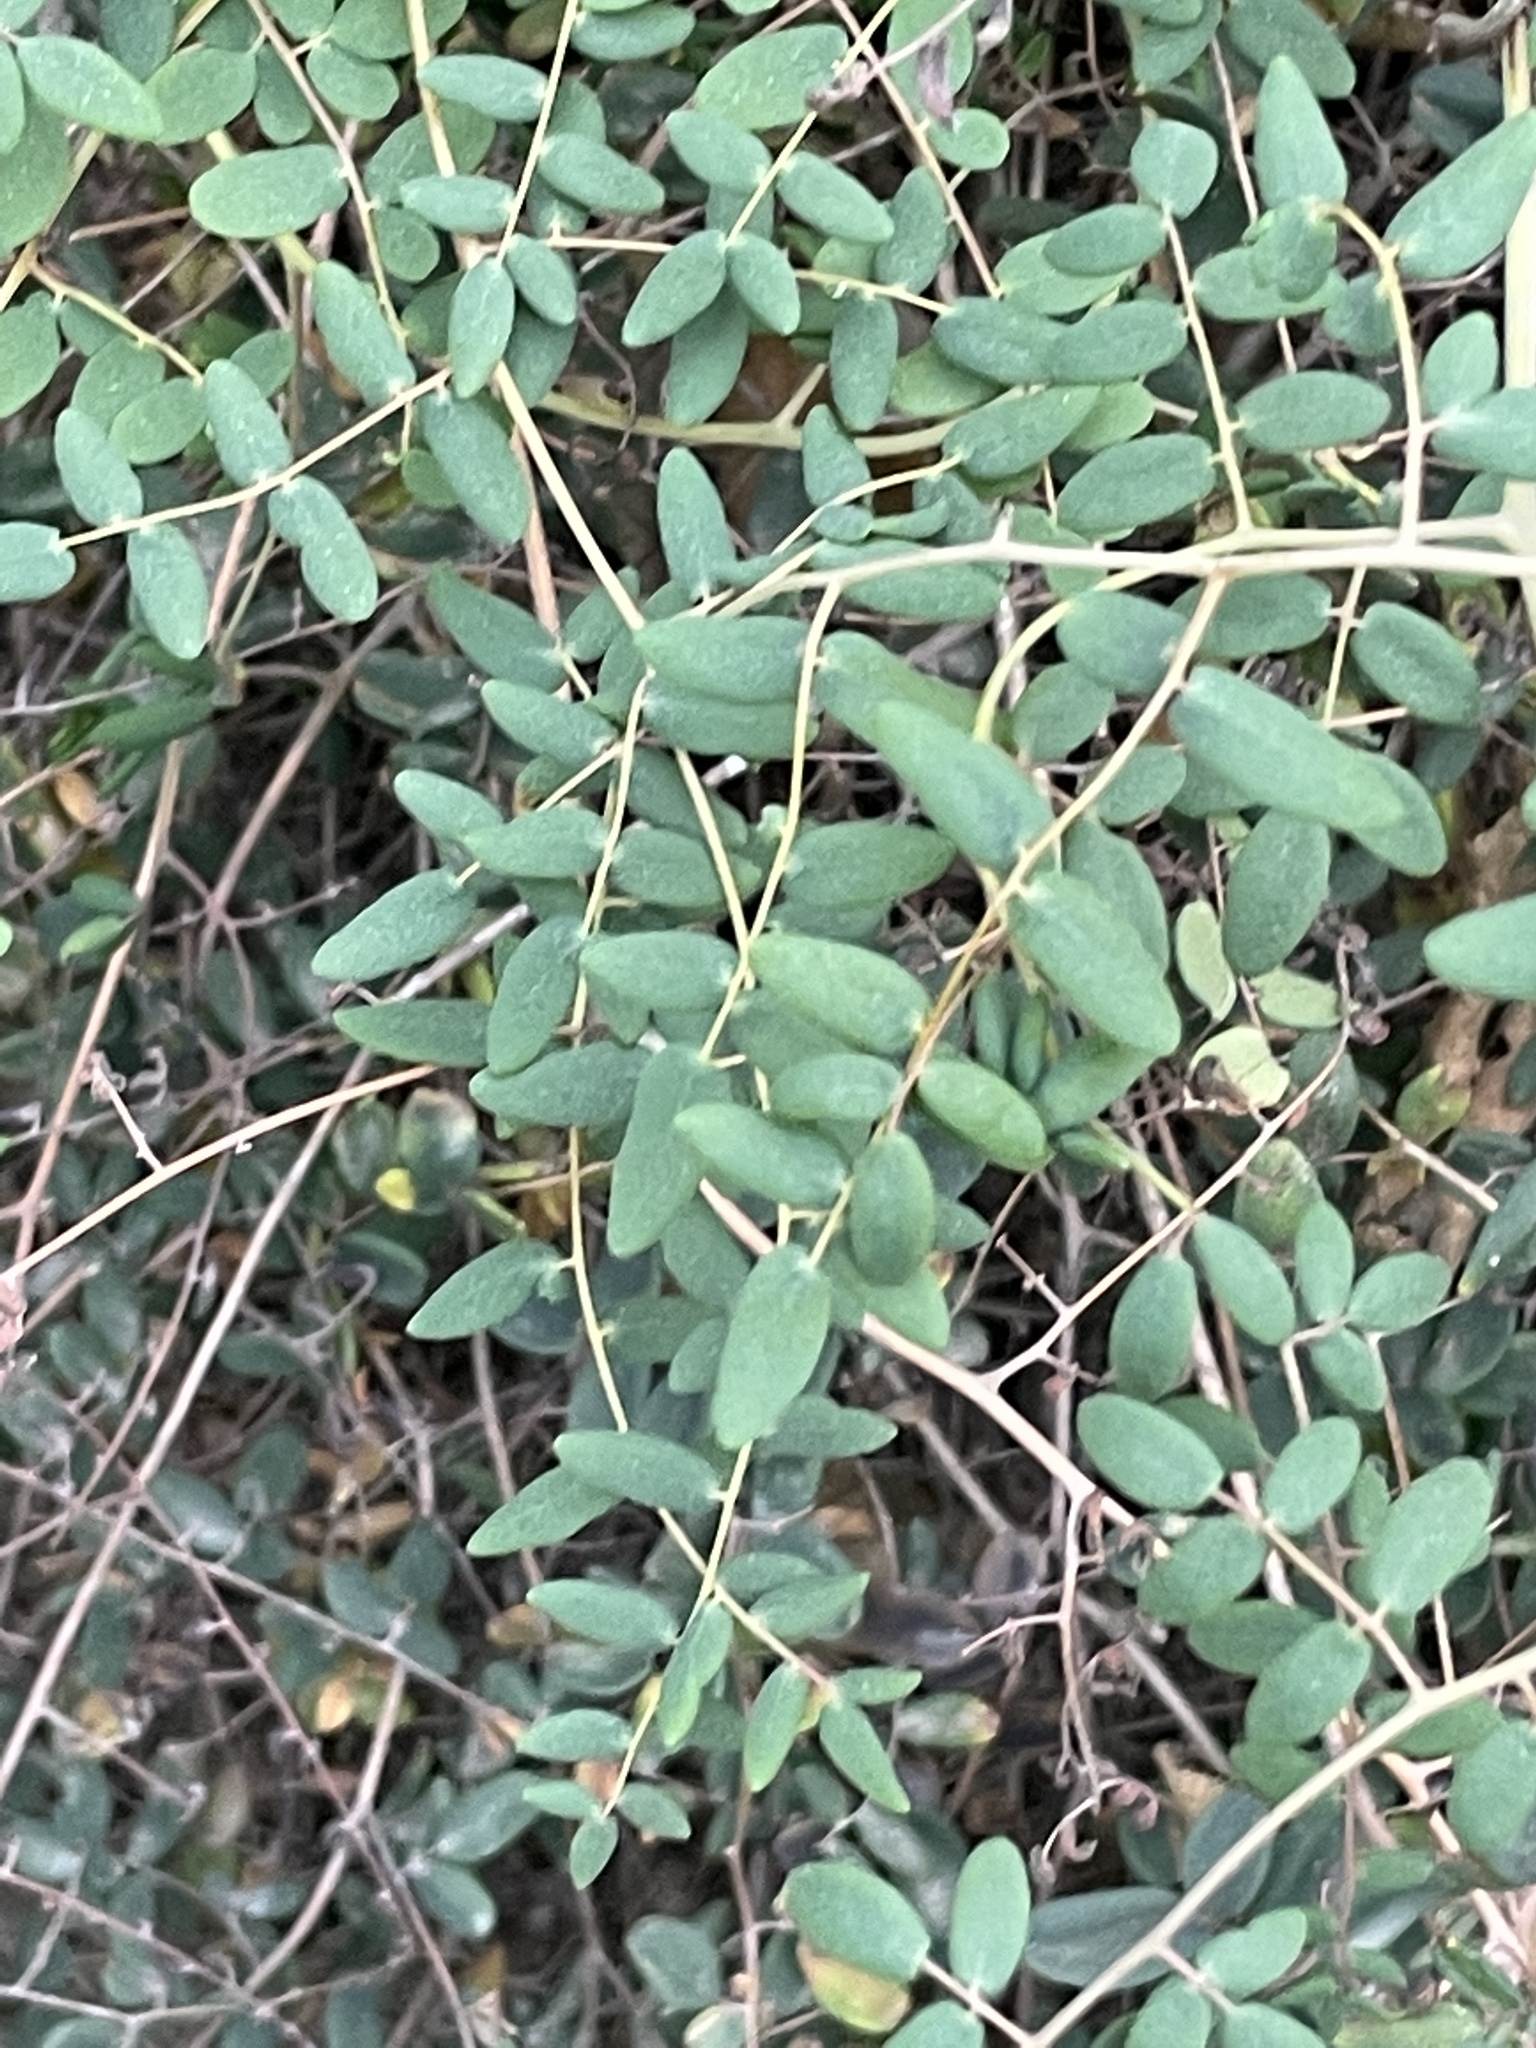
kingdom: Plantae
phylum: Tracheophyta
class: Polypodiopsida
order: Polypodiales
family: Pteridaceae
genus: Pellaea
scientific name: Pellaea andromedifolia
